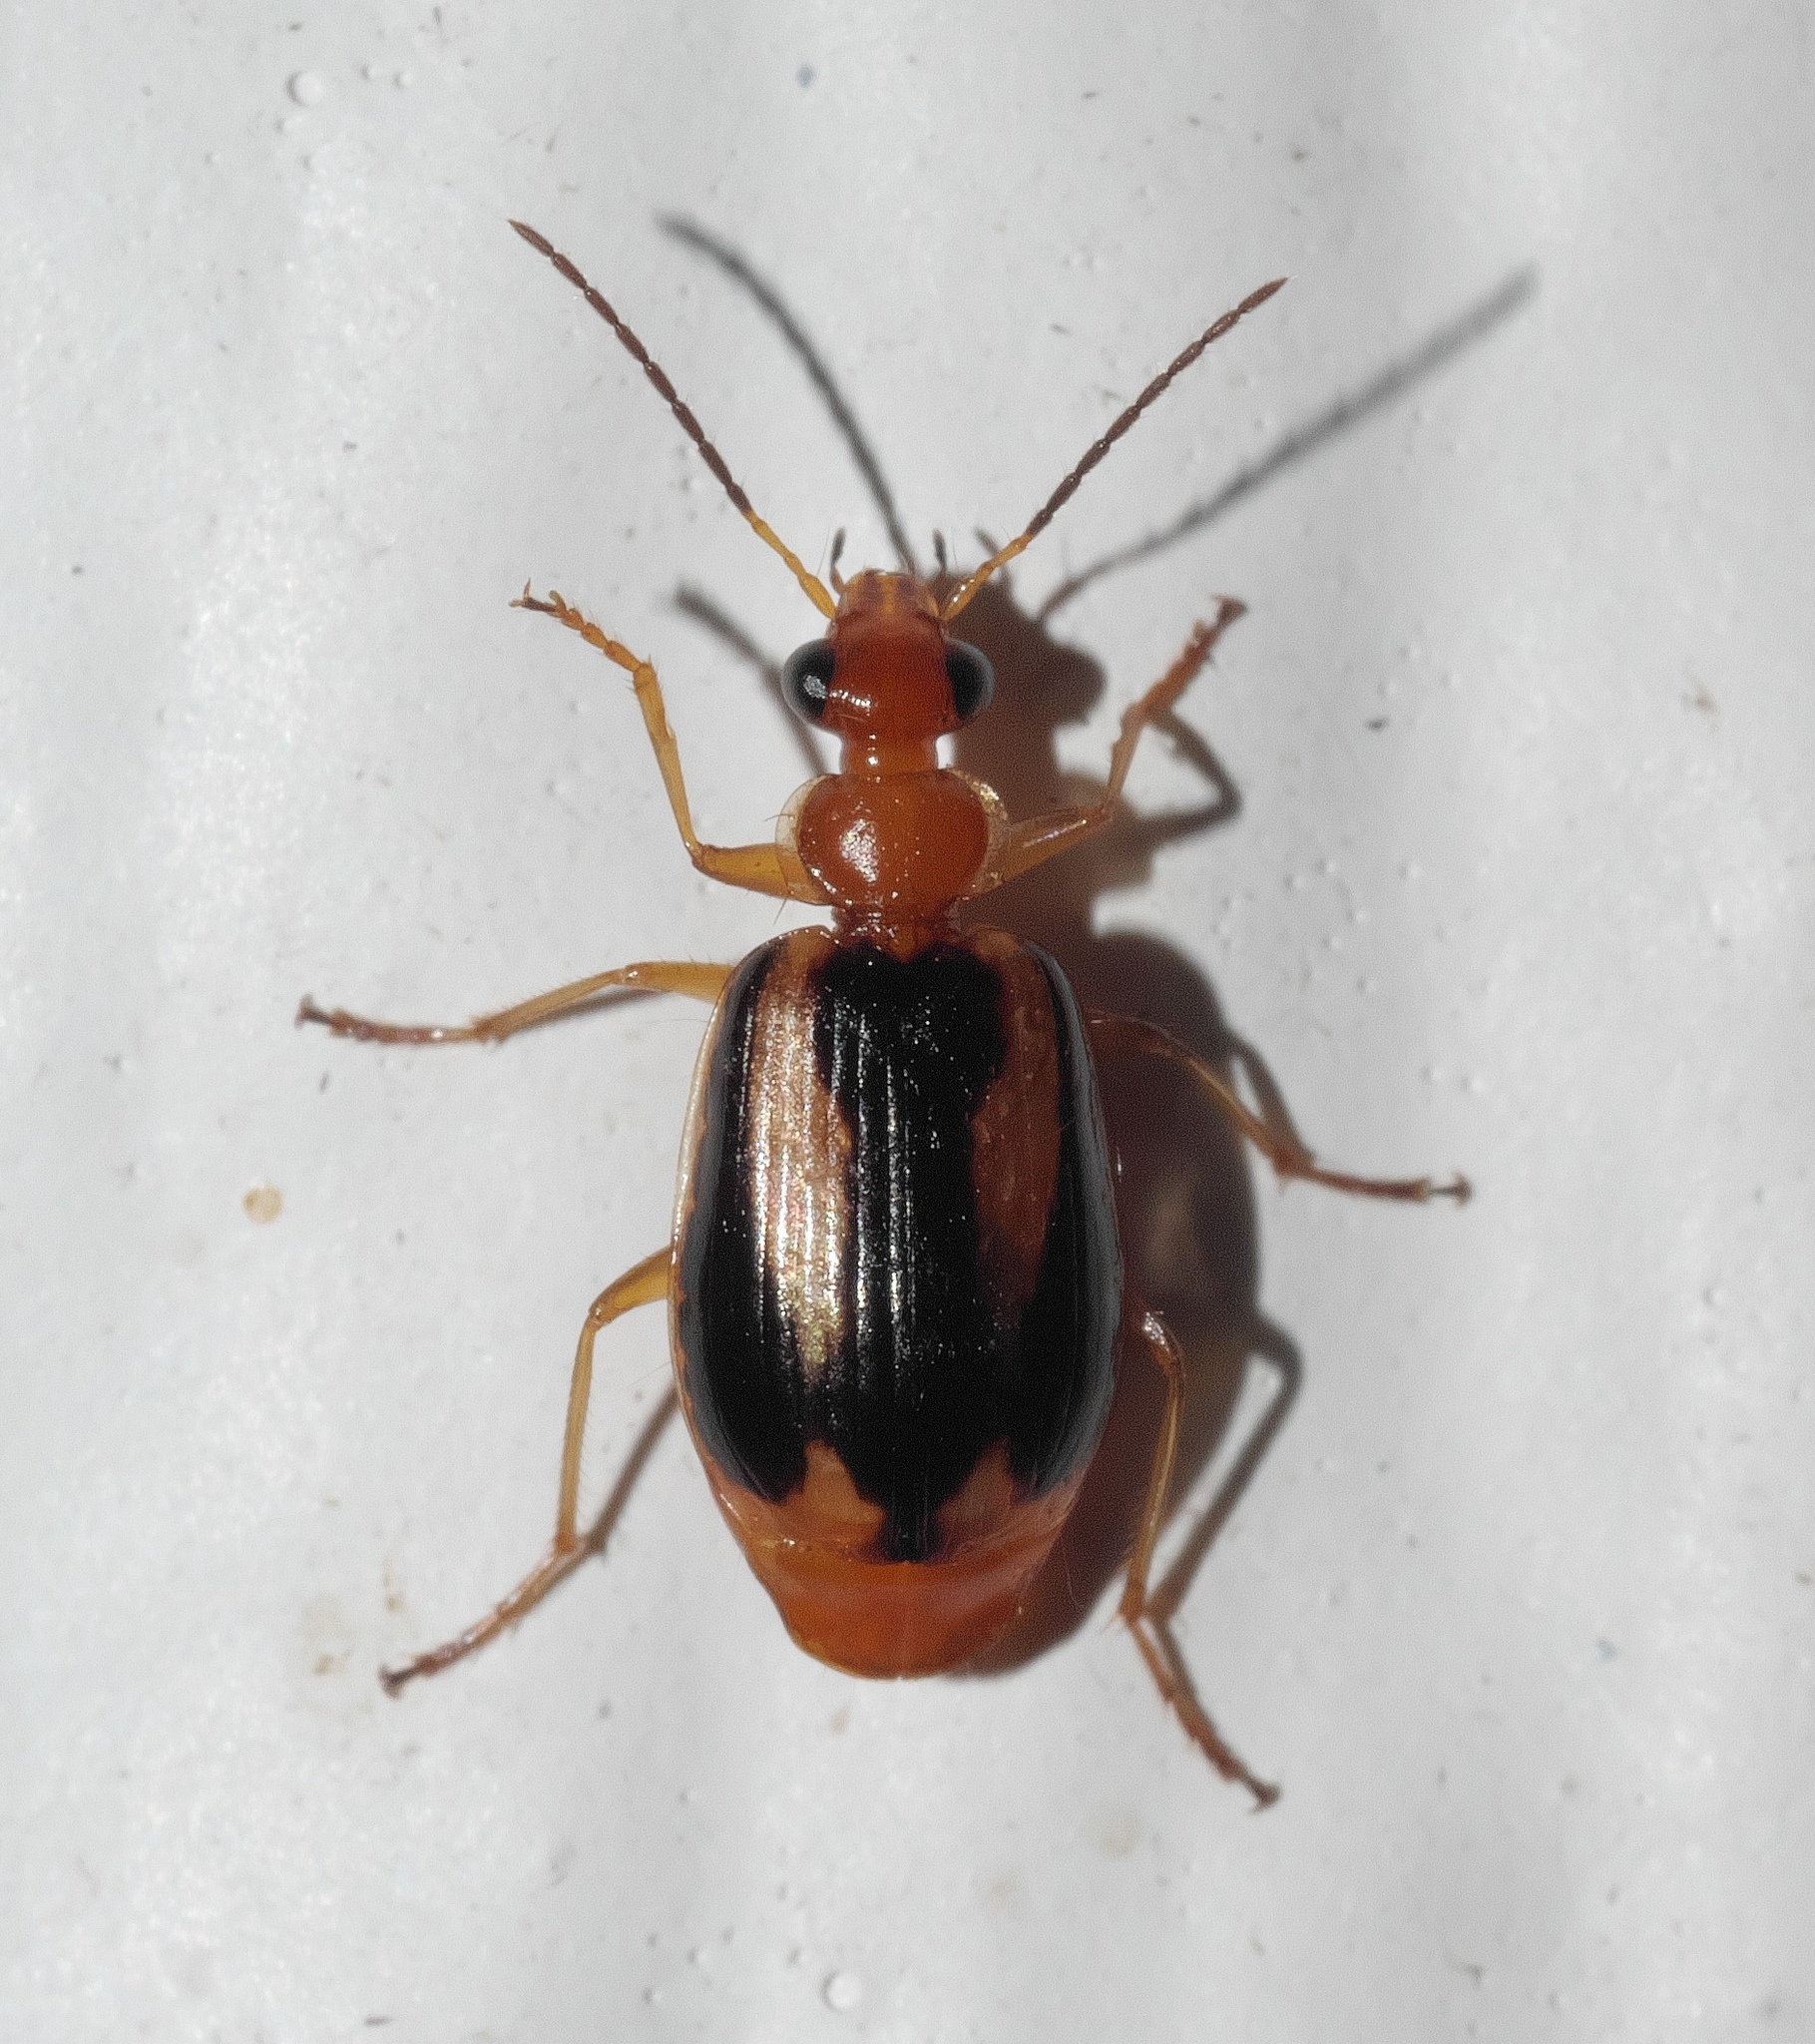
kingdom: Animalia
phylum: Arthropoda
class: Insecta
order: Coleoptera
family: Carabidae
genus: Lebia
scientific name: Lebia solea
